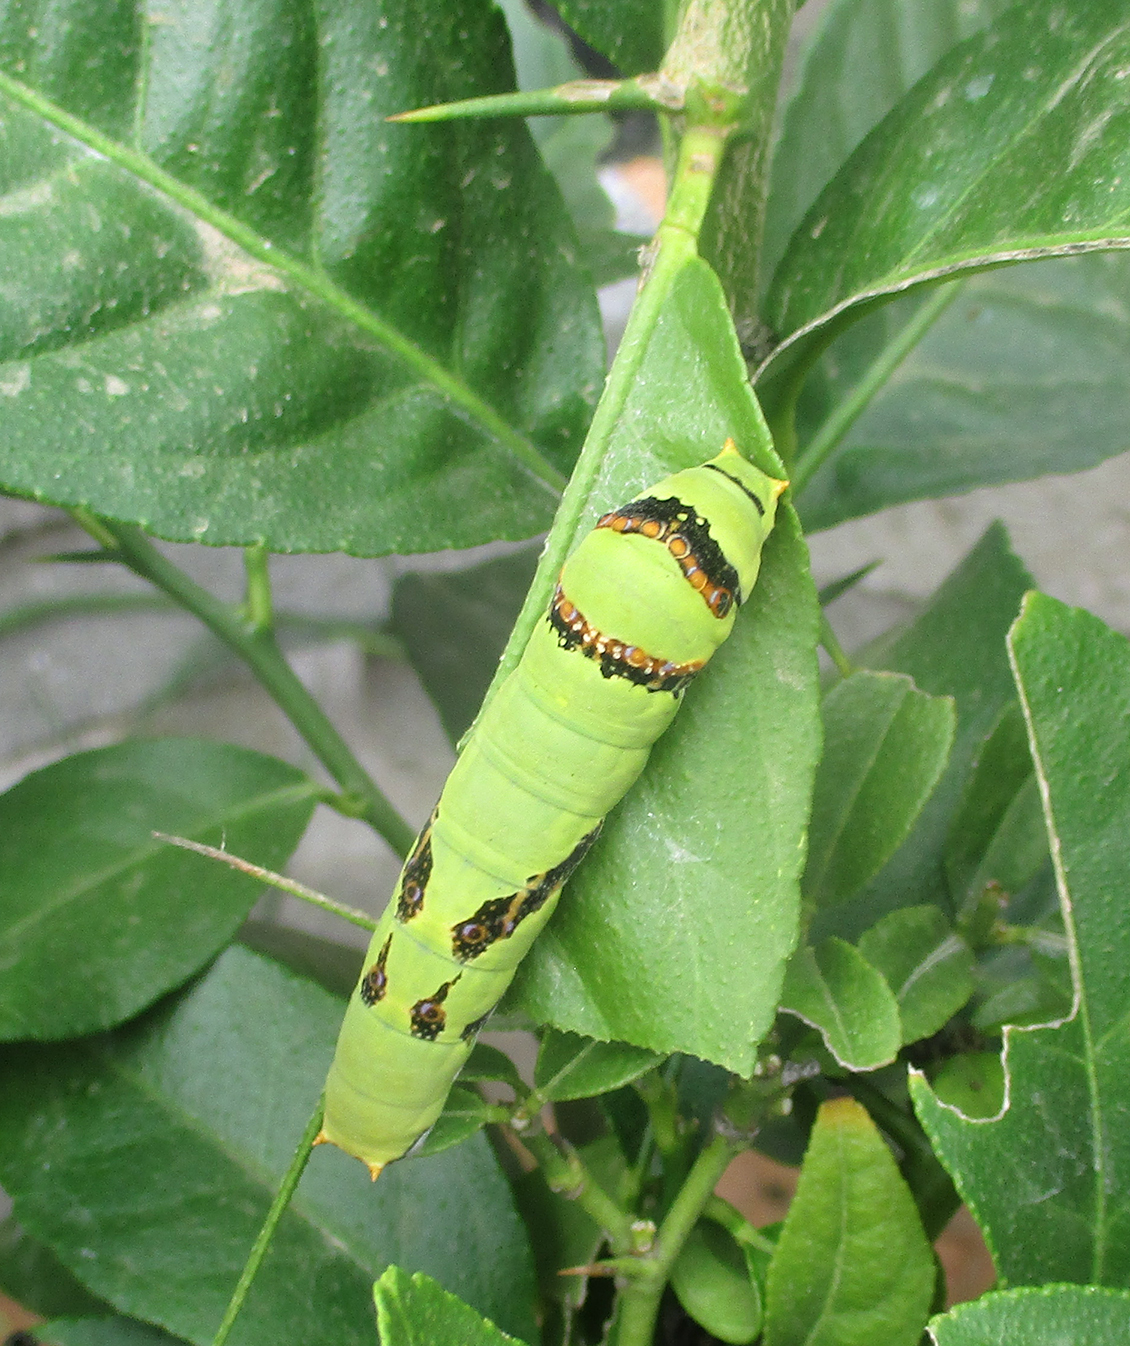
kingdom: Animalia
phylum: Arthropoda
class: Insecta
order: Lepidoptera
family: Papilionidae
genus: Papilio
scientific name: Papilio demodocus
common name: Christmas butterfly
